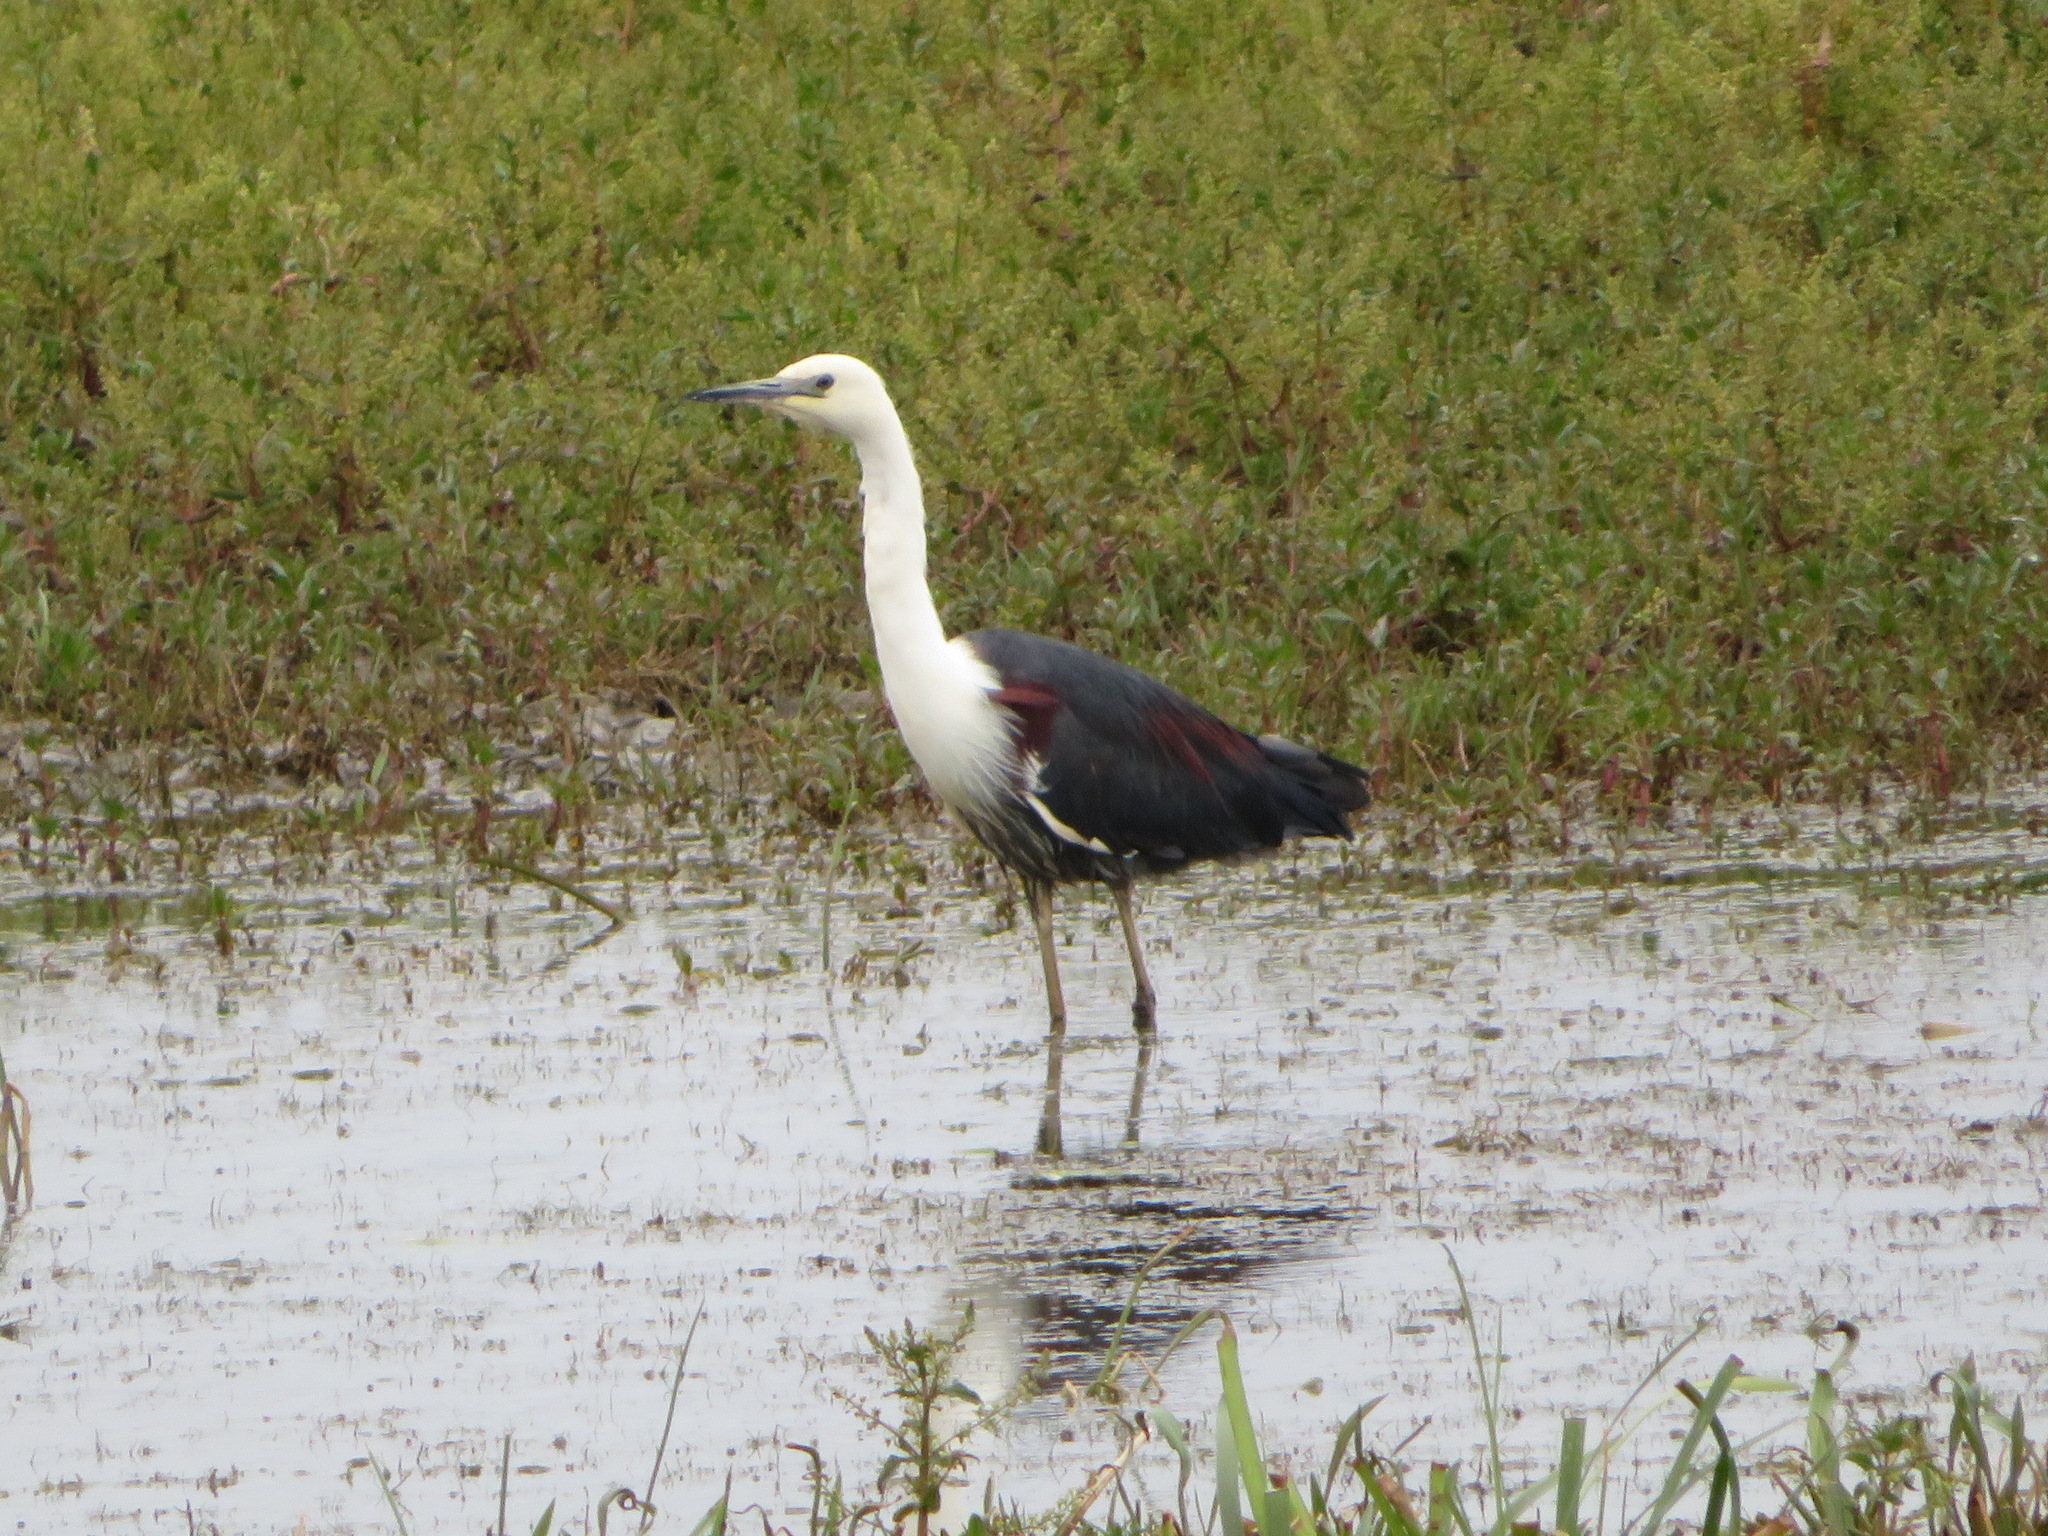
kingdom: Animalia
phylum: Chordata
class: Aves
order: Pelecaniformes
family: Ardeidae
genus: Ardea
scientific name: Ardea pacifica
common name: White-necked heron
